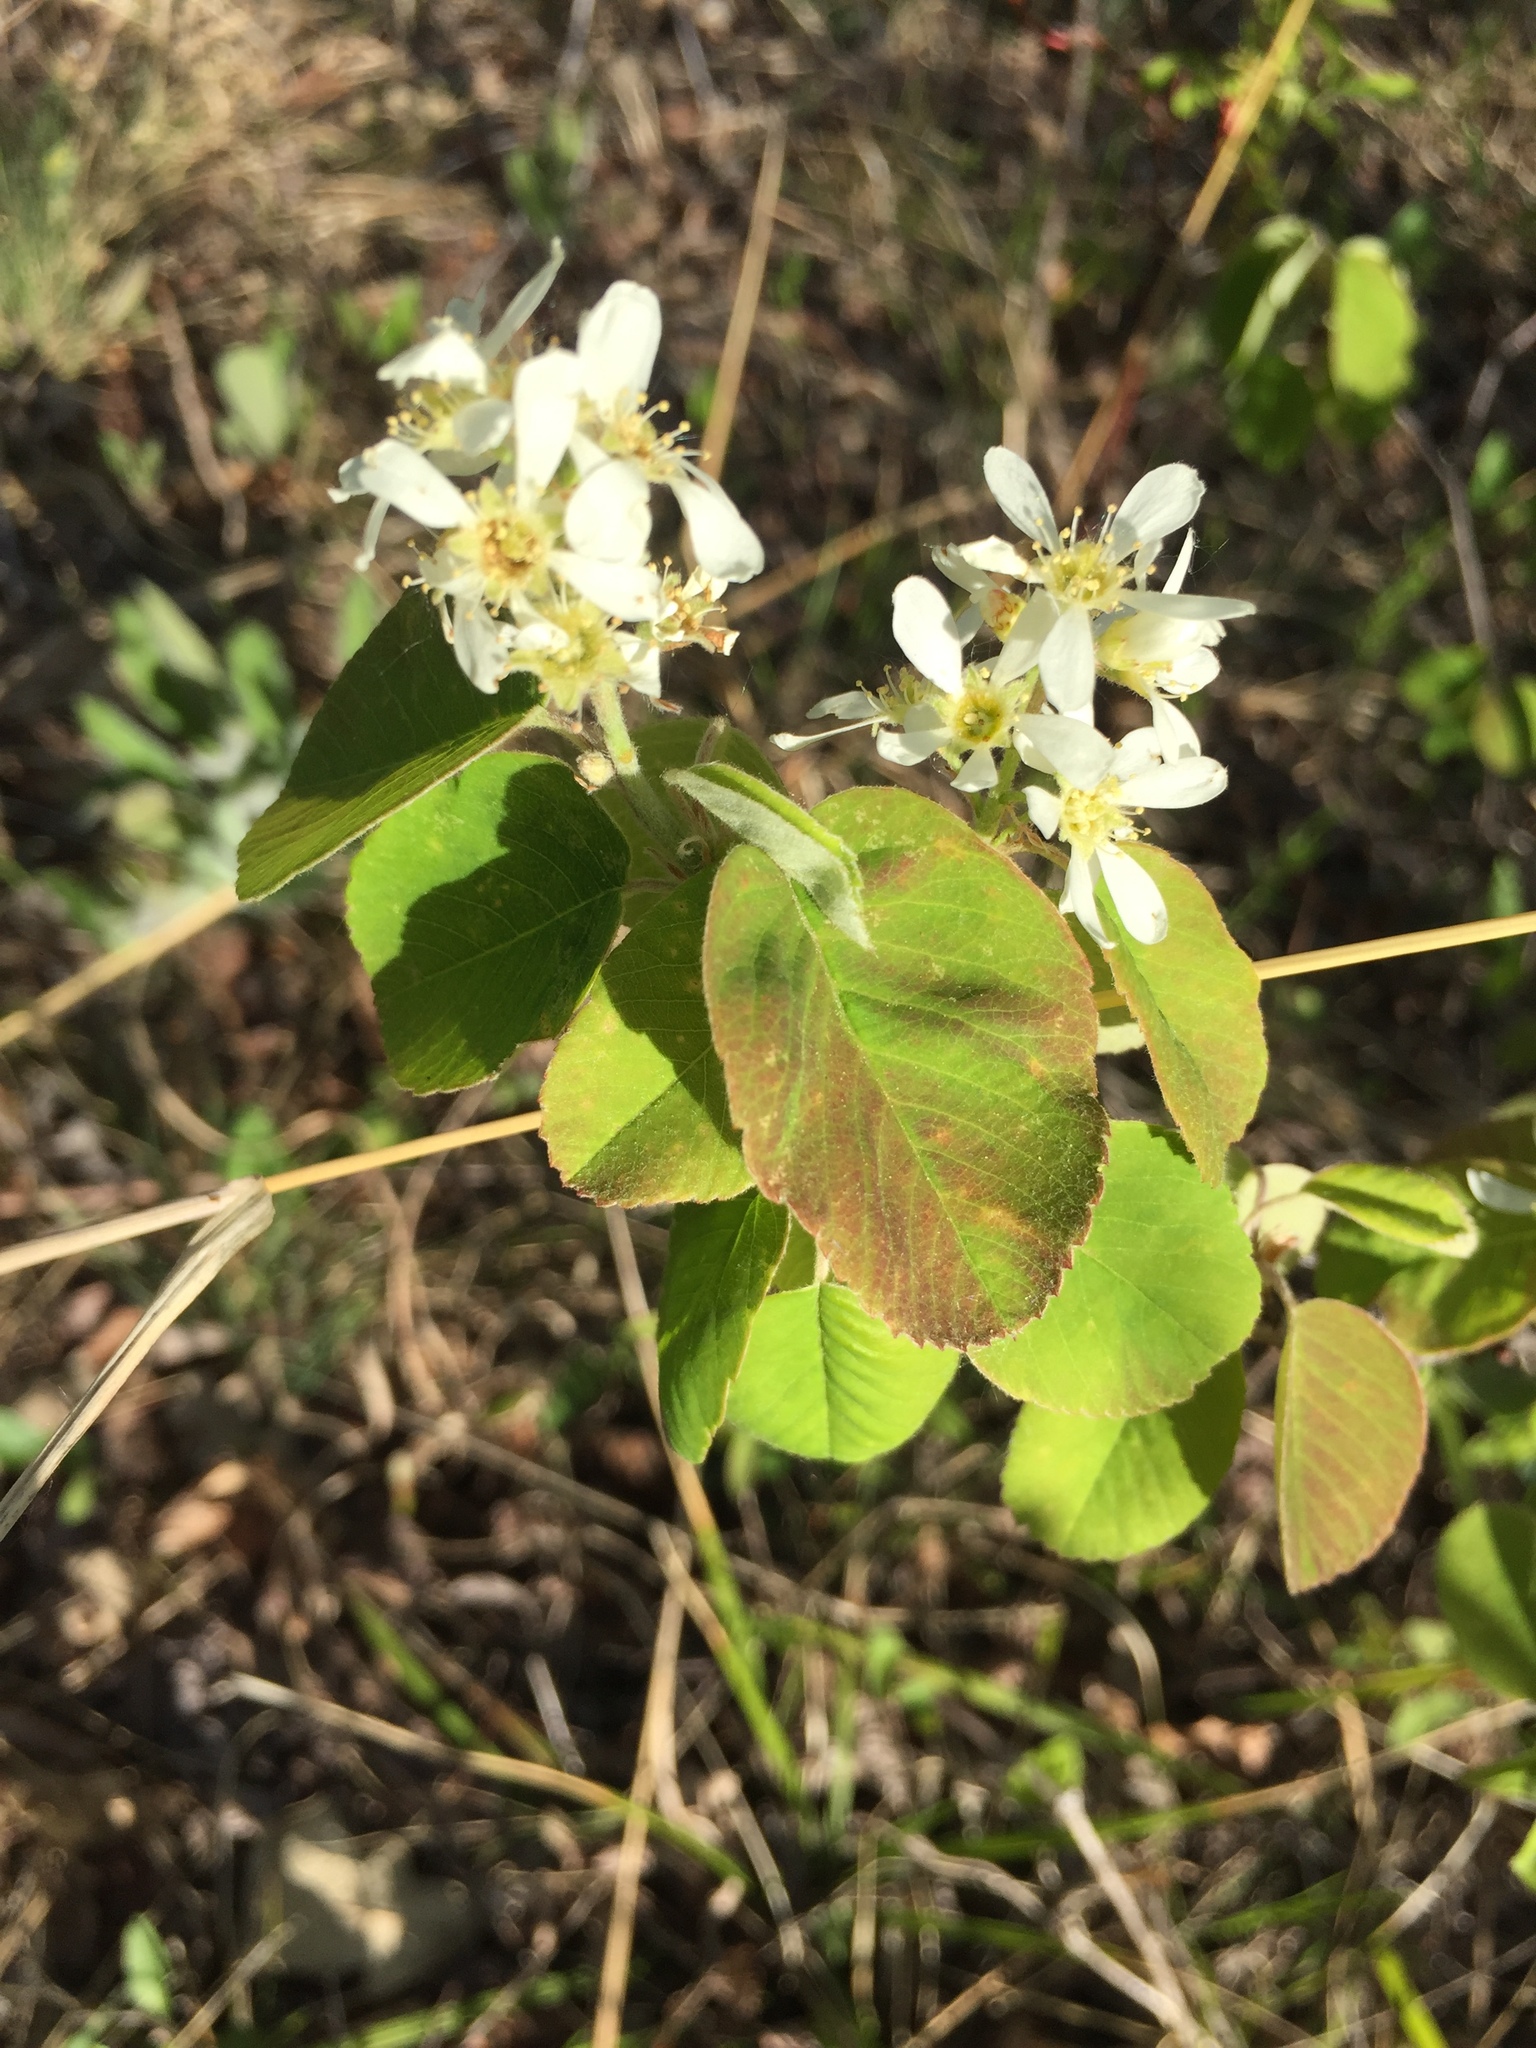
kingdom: Plantae
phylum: Tracheophyta
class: Magnoliopsida
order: Rosales
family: Rosaceae
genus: Amelanchier
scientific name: Amelanchier alnifolia
